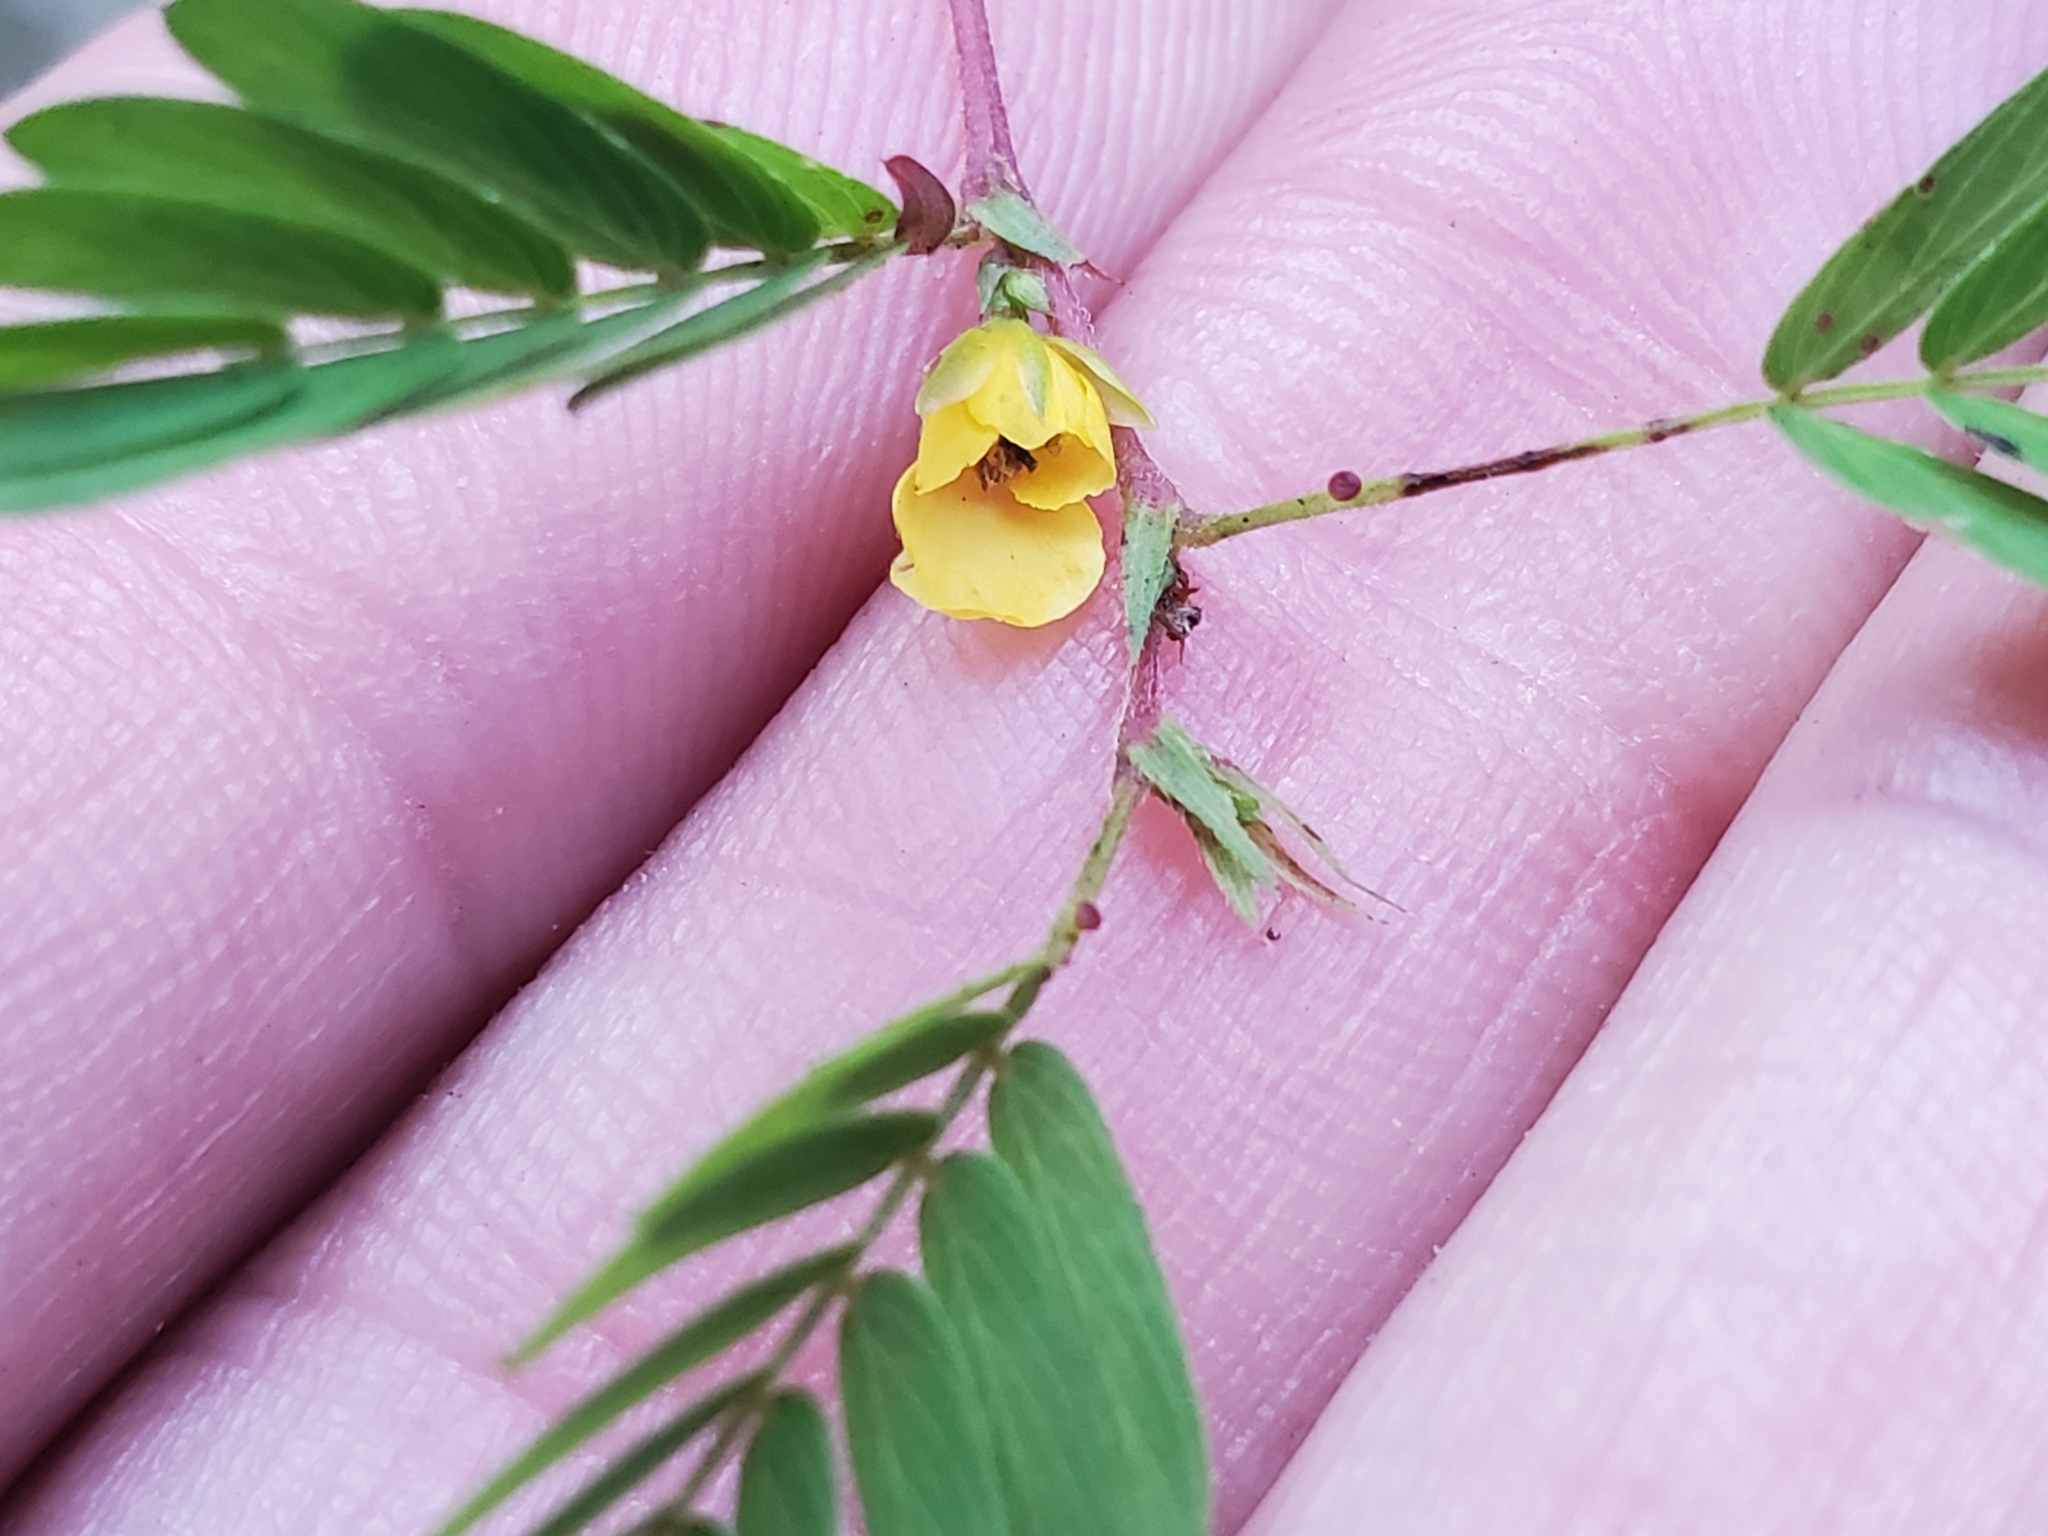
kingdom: Plantae
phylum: Tracheophyta
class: Magnoliopsida
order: Fabales
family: Fabaceae
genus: Chamaecrista
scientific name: Chamaecrista fasciculata
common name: Golden cassia
